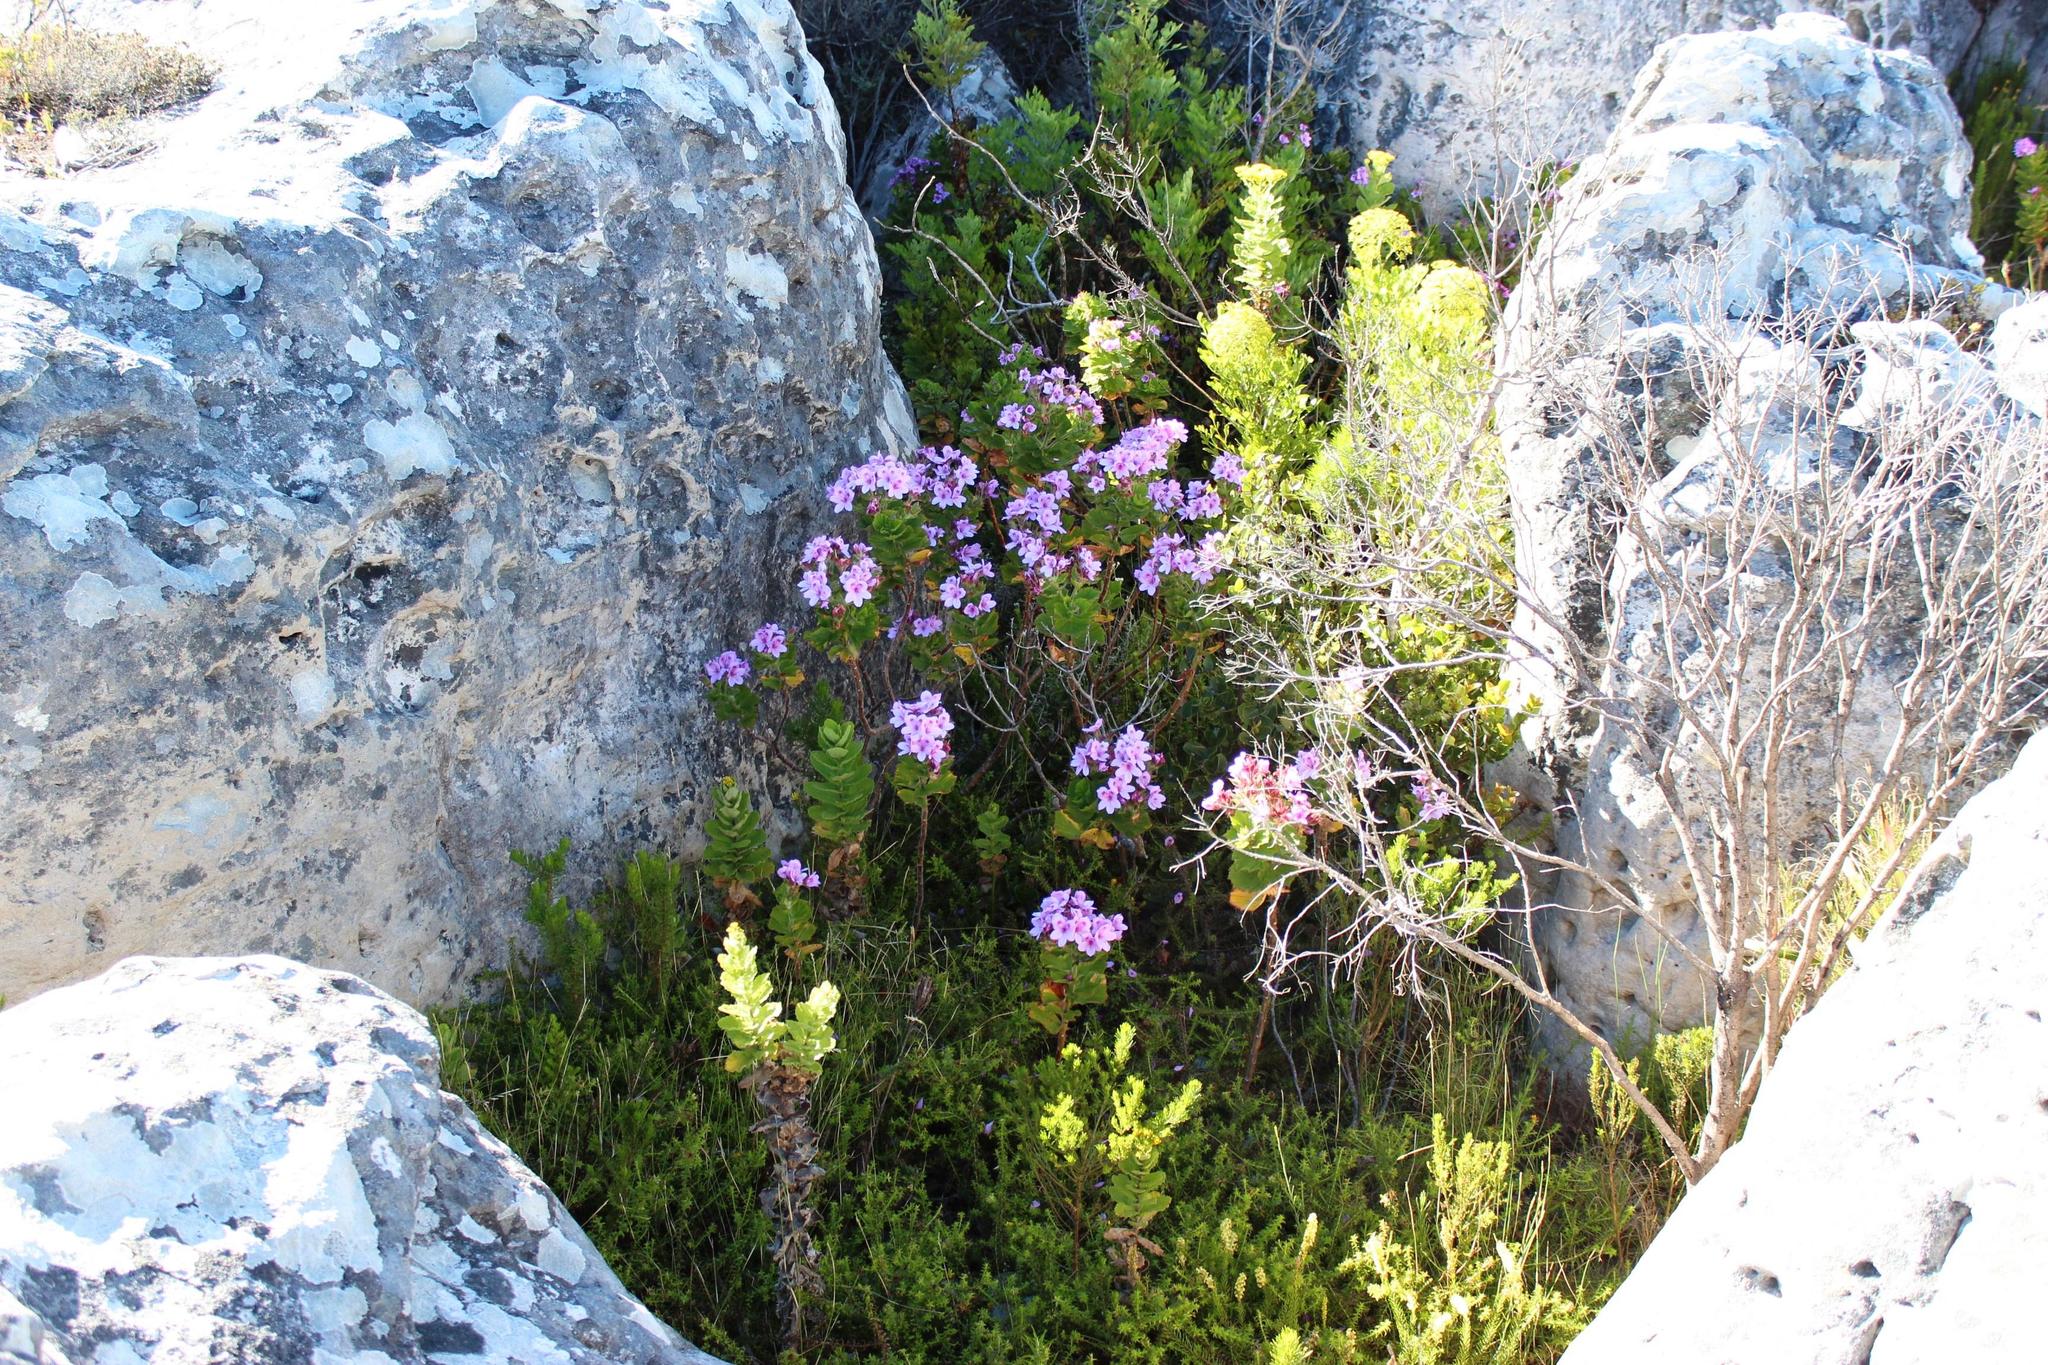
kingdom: Plantae
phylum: Tracheophyta
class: Magnoliopsida
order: Geraniales
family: Geraniaceae
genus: Pelargonium
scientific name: Pelargonium cucullatum
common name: Tree pelargonium
